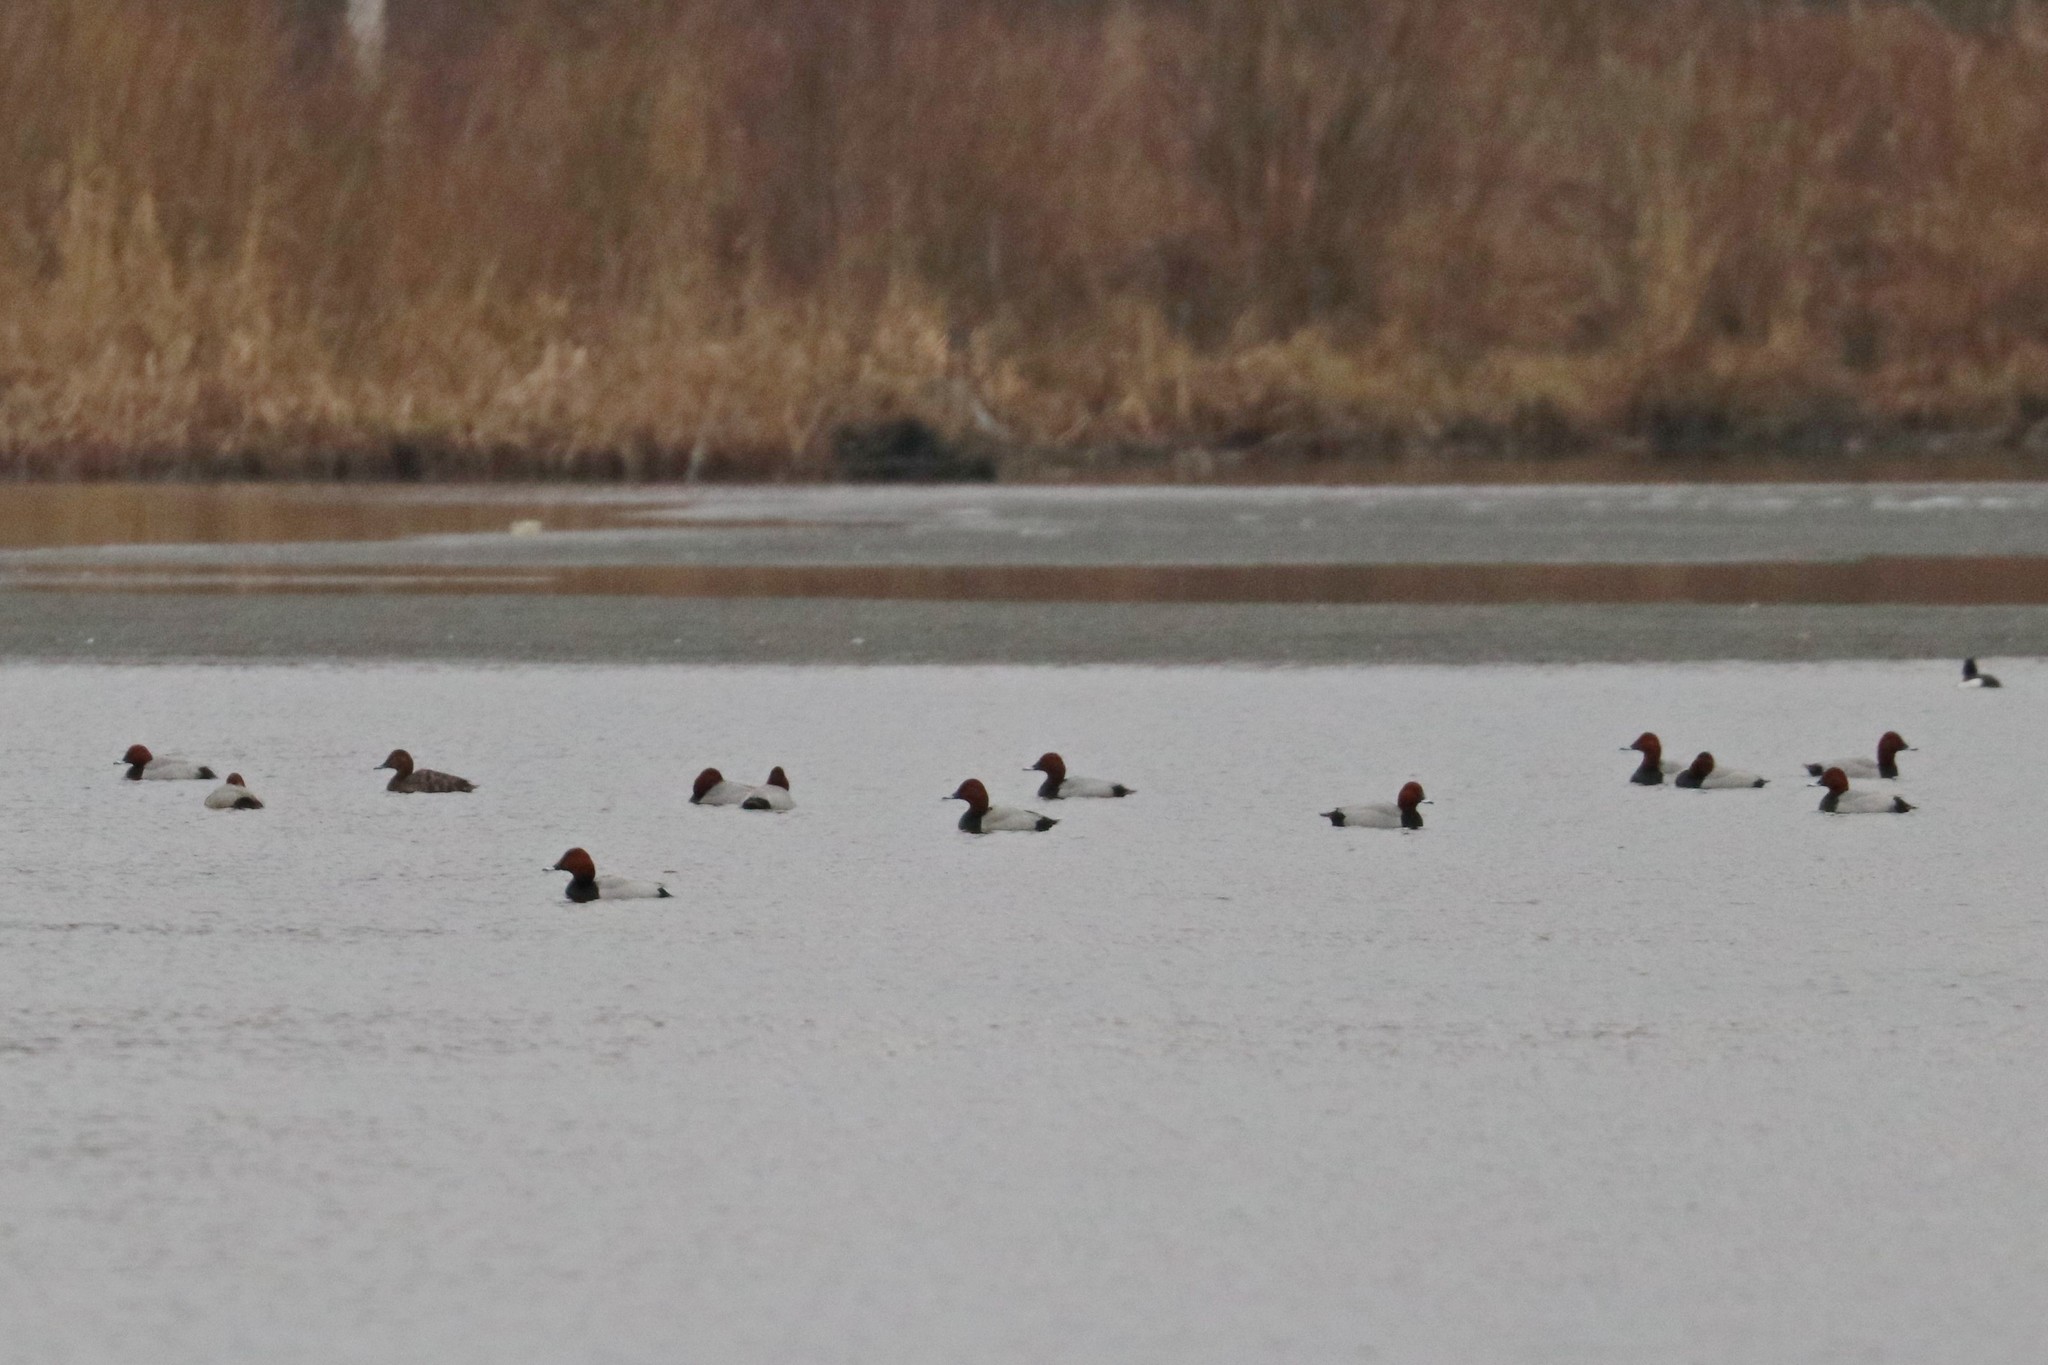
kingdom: Animalia
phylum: Chordata
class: Aves
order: Anseriformes
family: Anatidae
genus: Aythya
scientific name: Aythya ferina
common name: Common pochard
